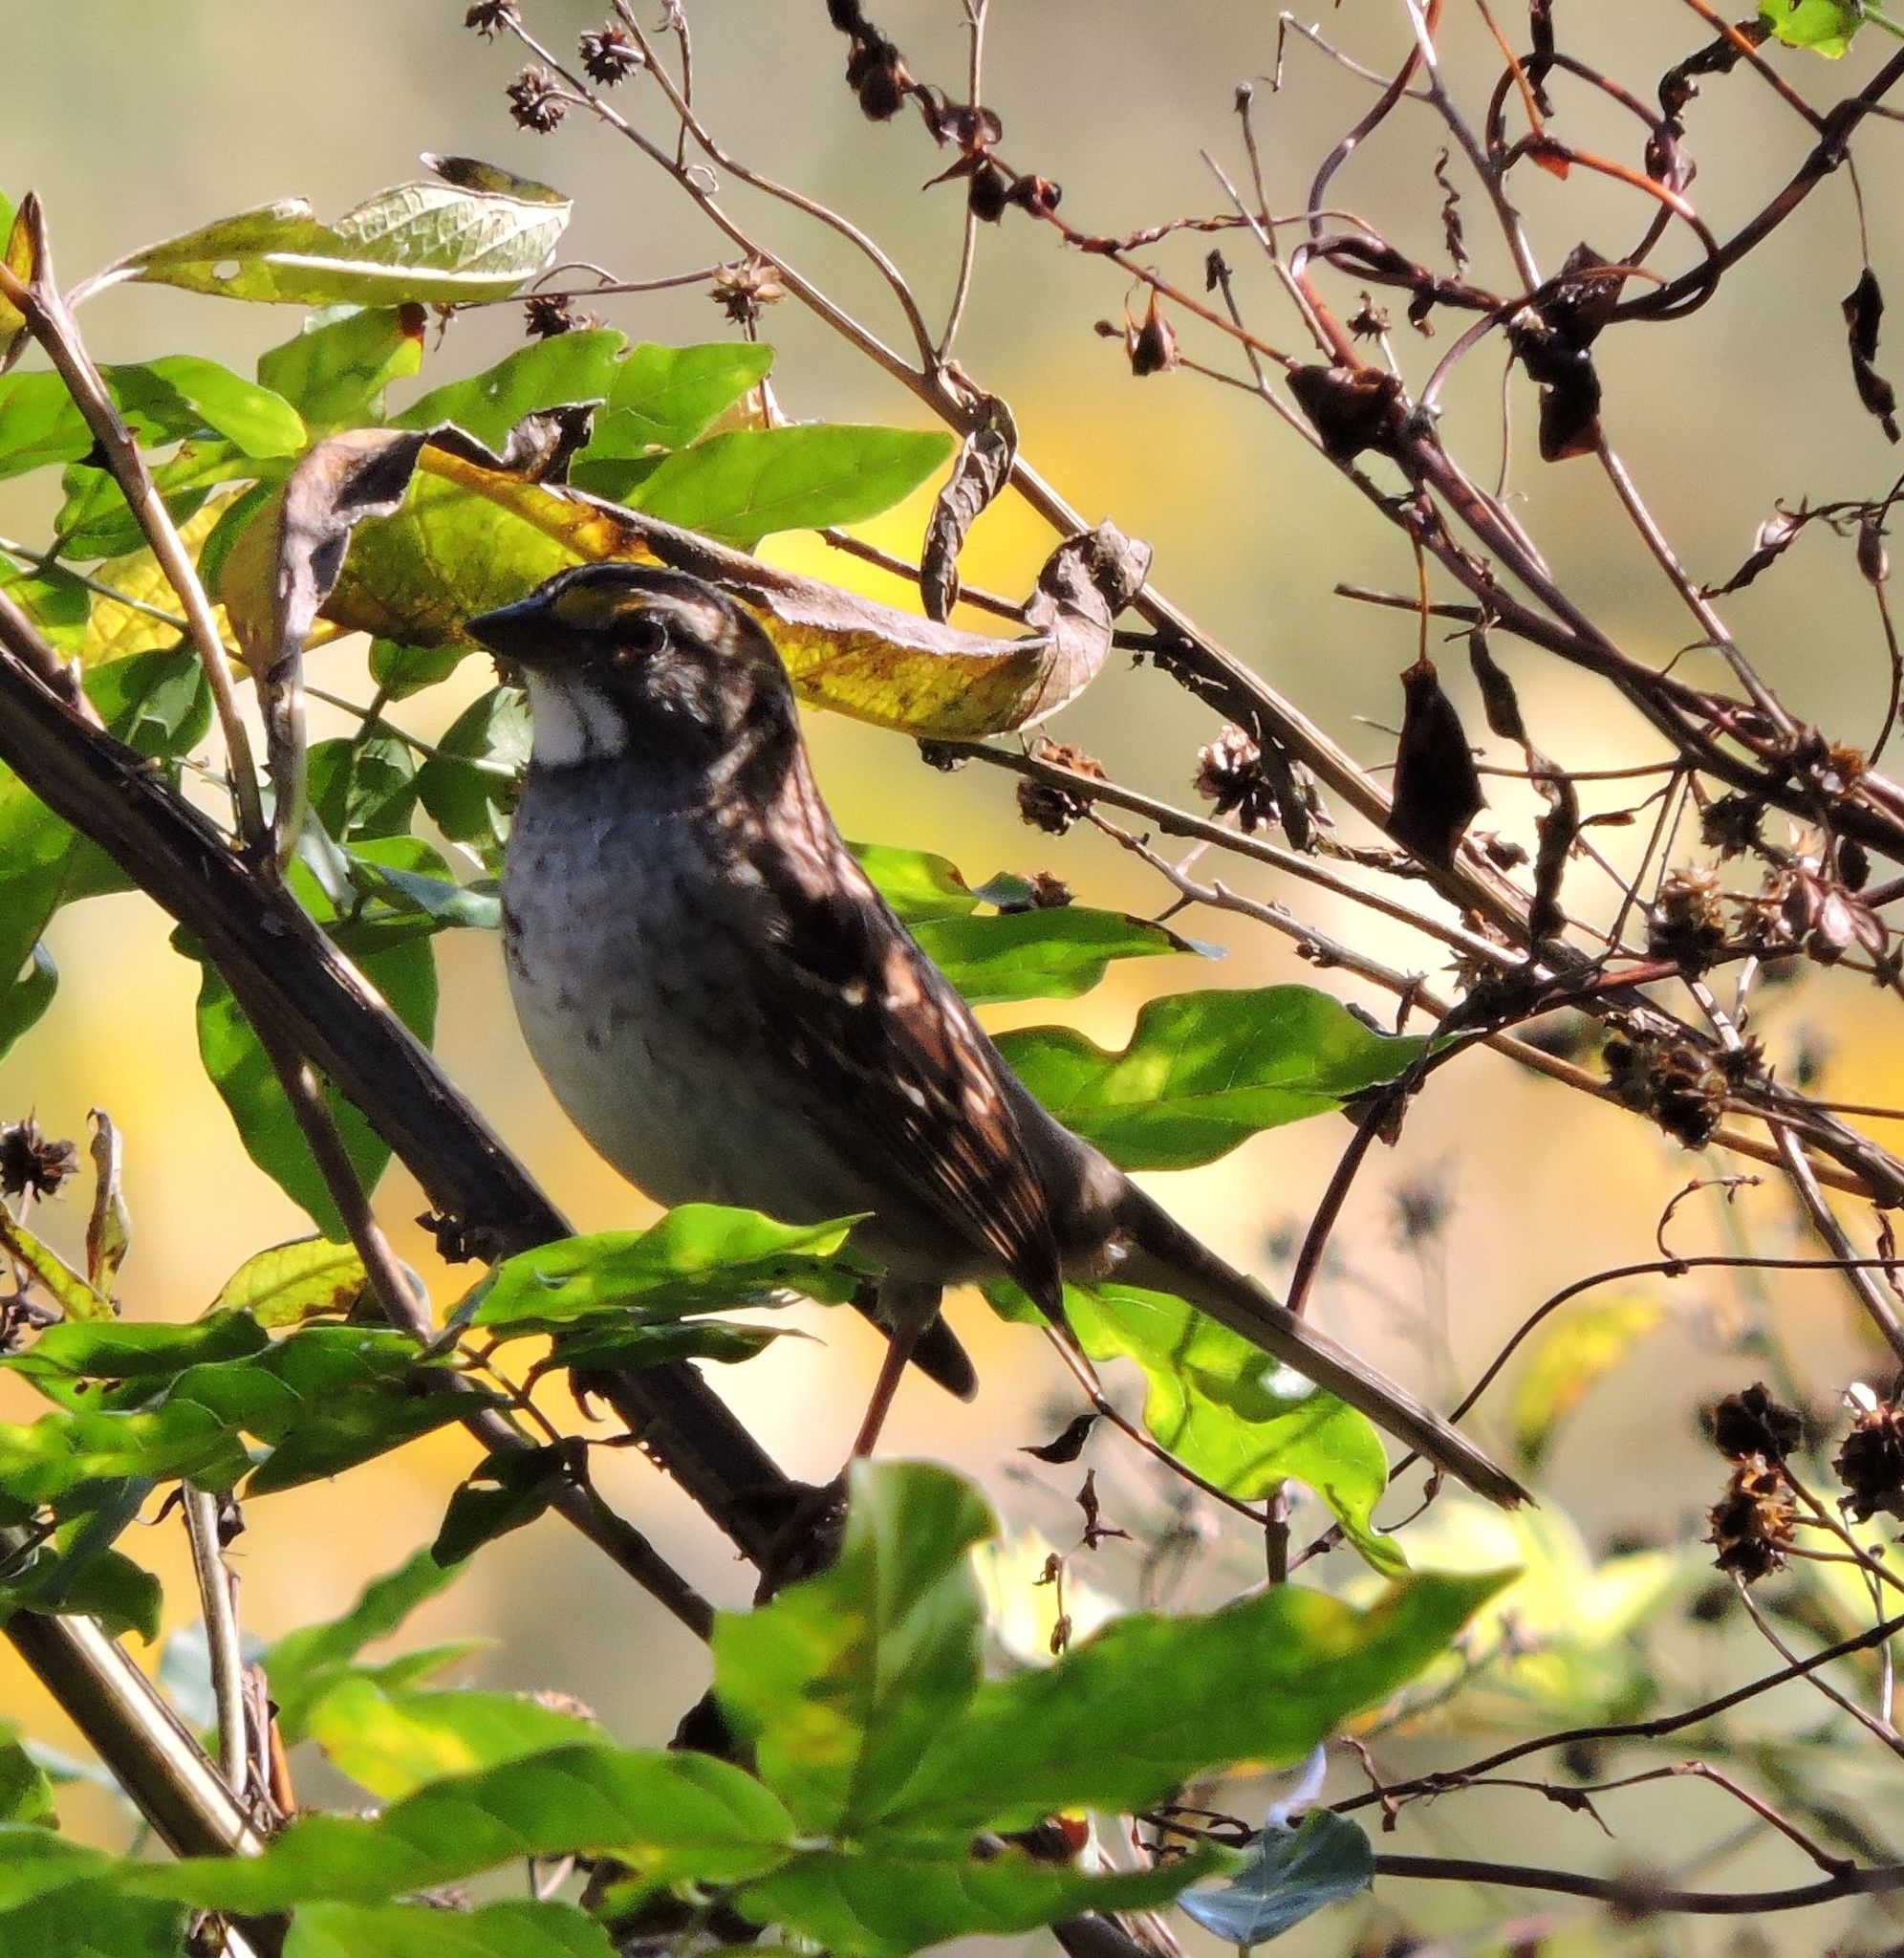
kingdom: Animalia
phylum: Chordata
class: Aves
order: Passeriformes
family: Passerellidae
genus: Zonotrichia
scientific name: Zonotrichia albicollis
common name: White-throated sparrow
